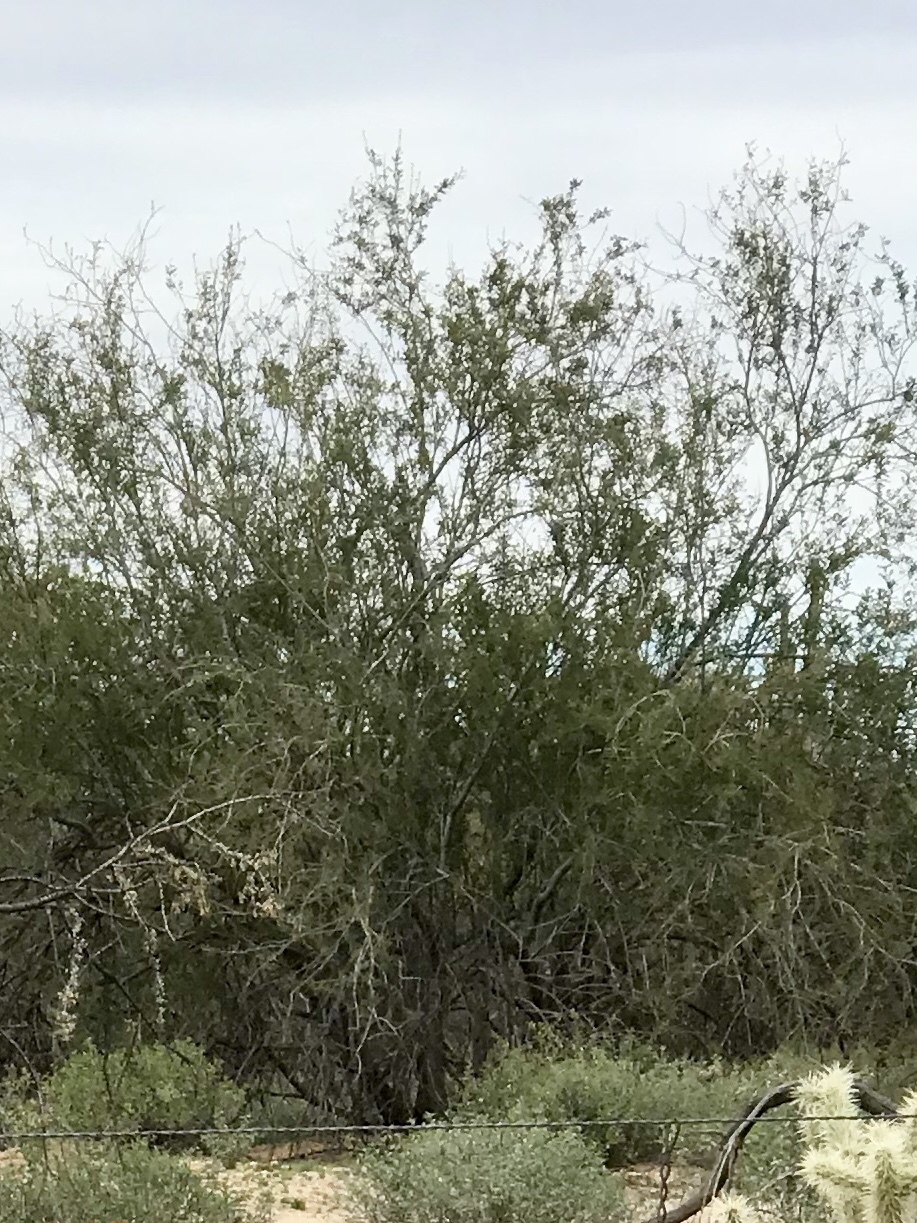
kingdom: Plantae
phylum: Tracheophyta
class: Magnoliopsida
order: Fabales
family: Fabaceae
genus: Olneya
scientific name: Olneya tesota
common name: Desert ironwood
